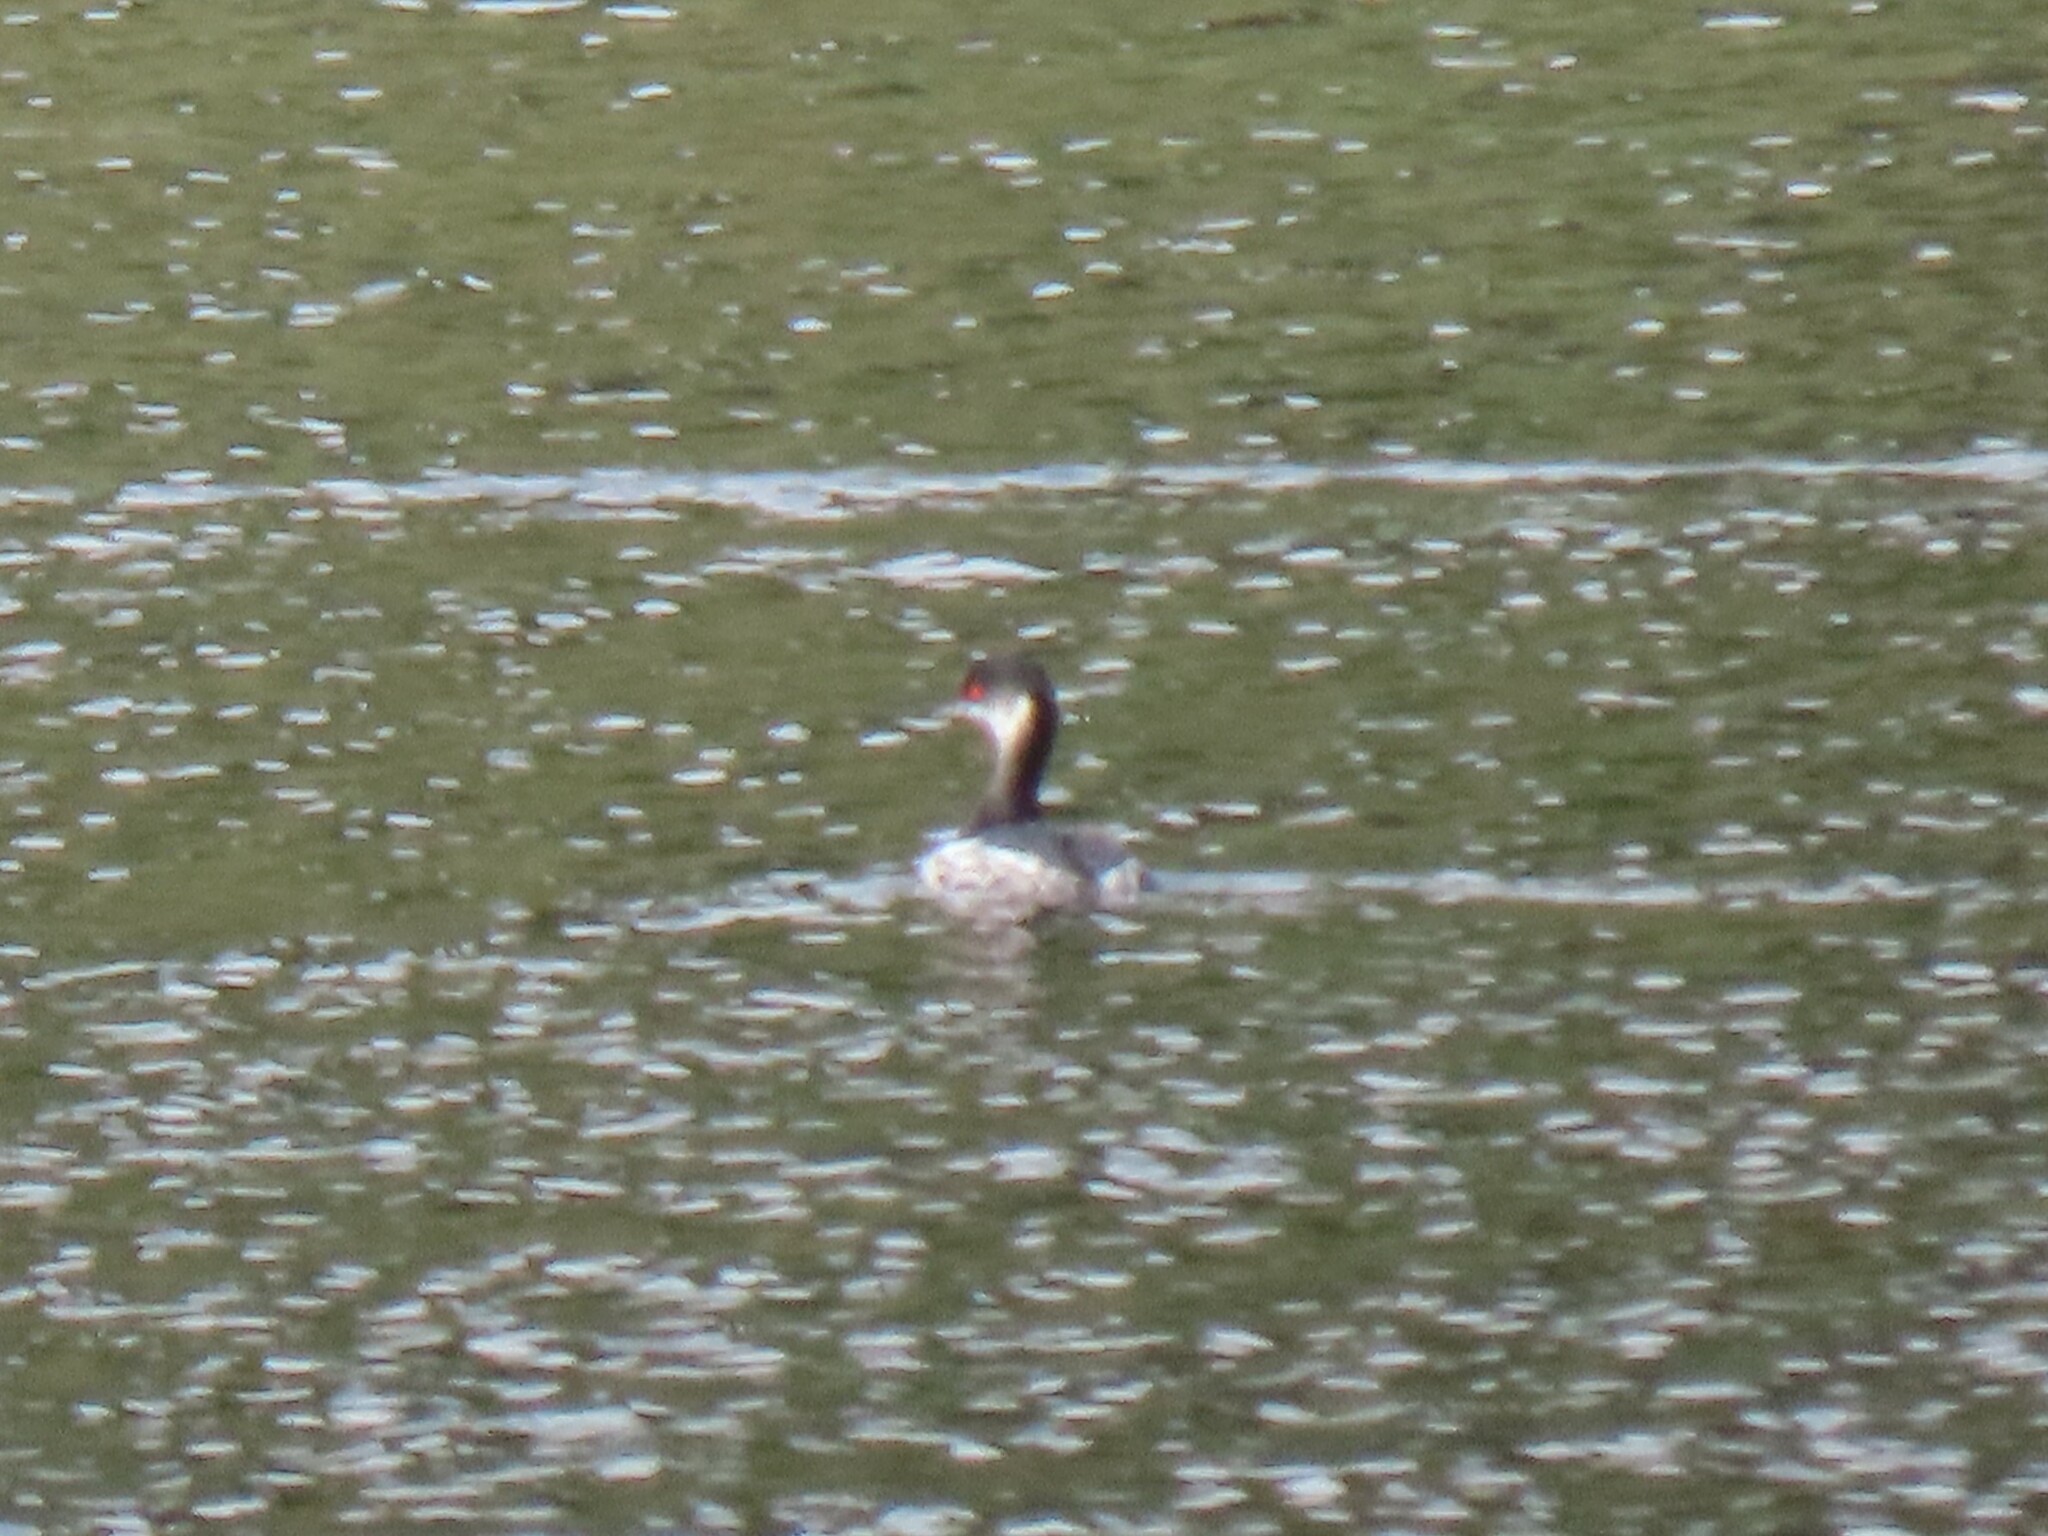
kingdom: Animalia
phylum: Chordata
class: Aves
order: Podicipediformes
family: Podicipedidae
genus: Podiceps
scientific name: Podiceps nigricollis
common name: Black-necked grebe
